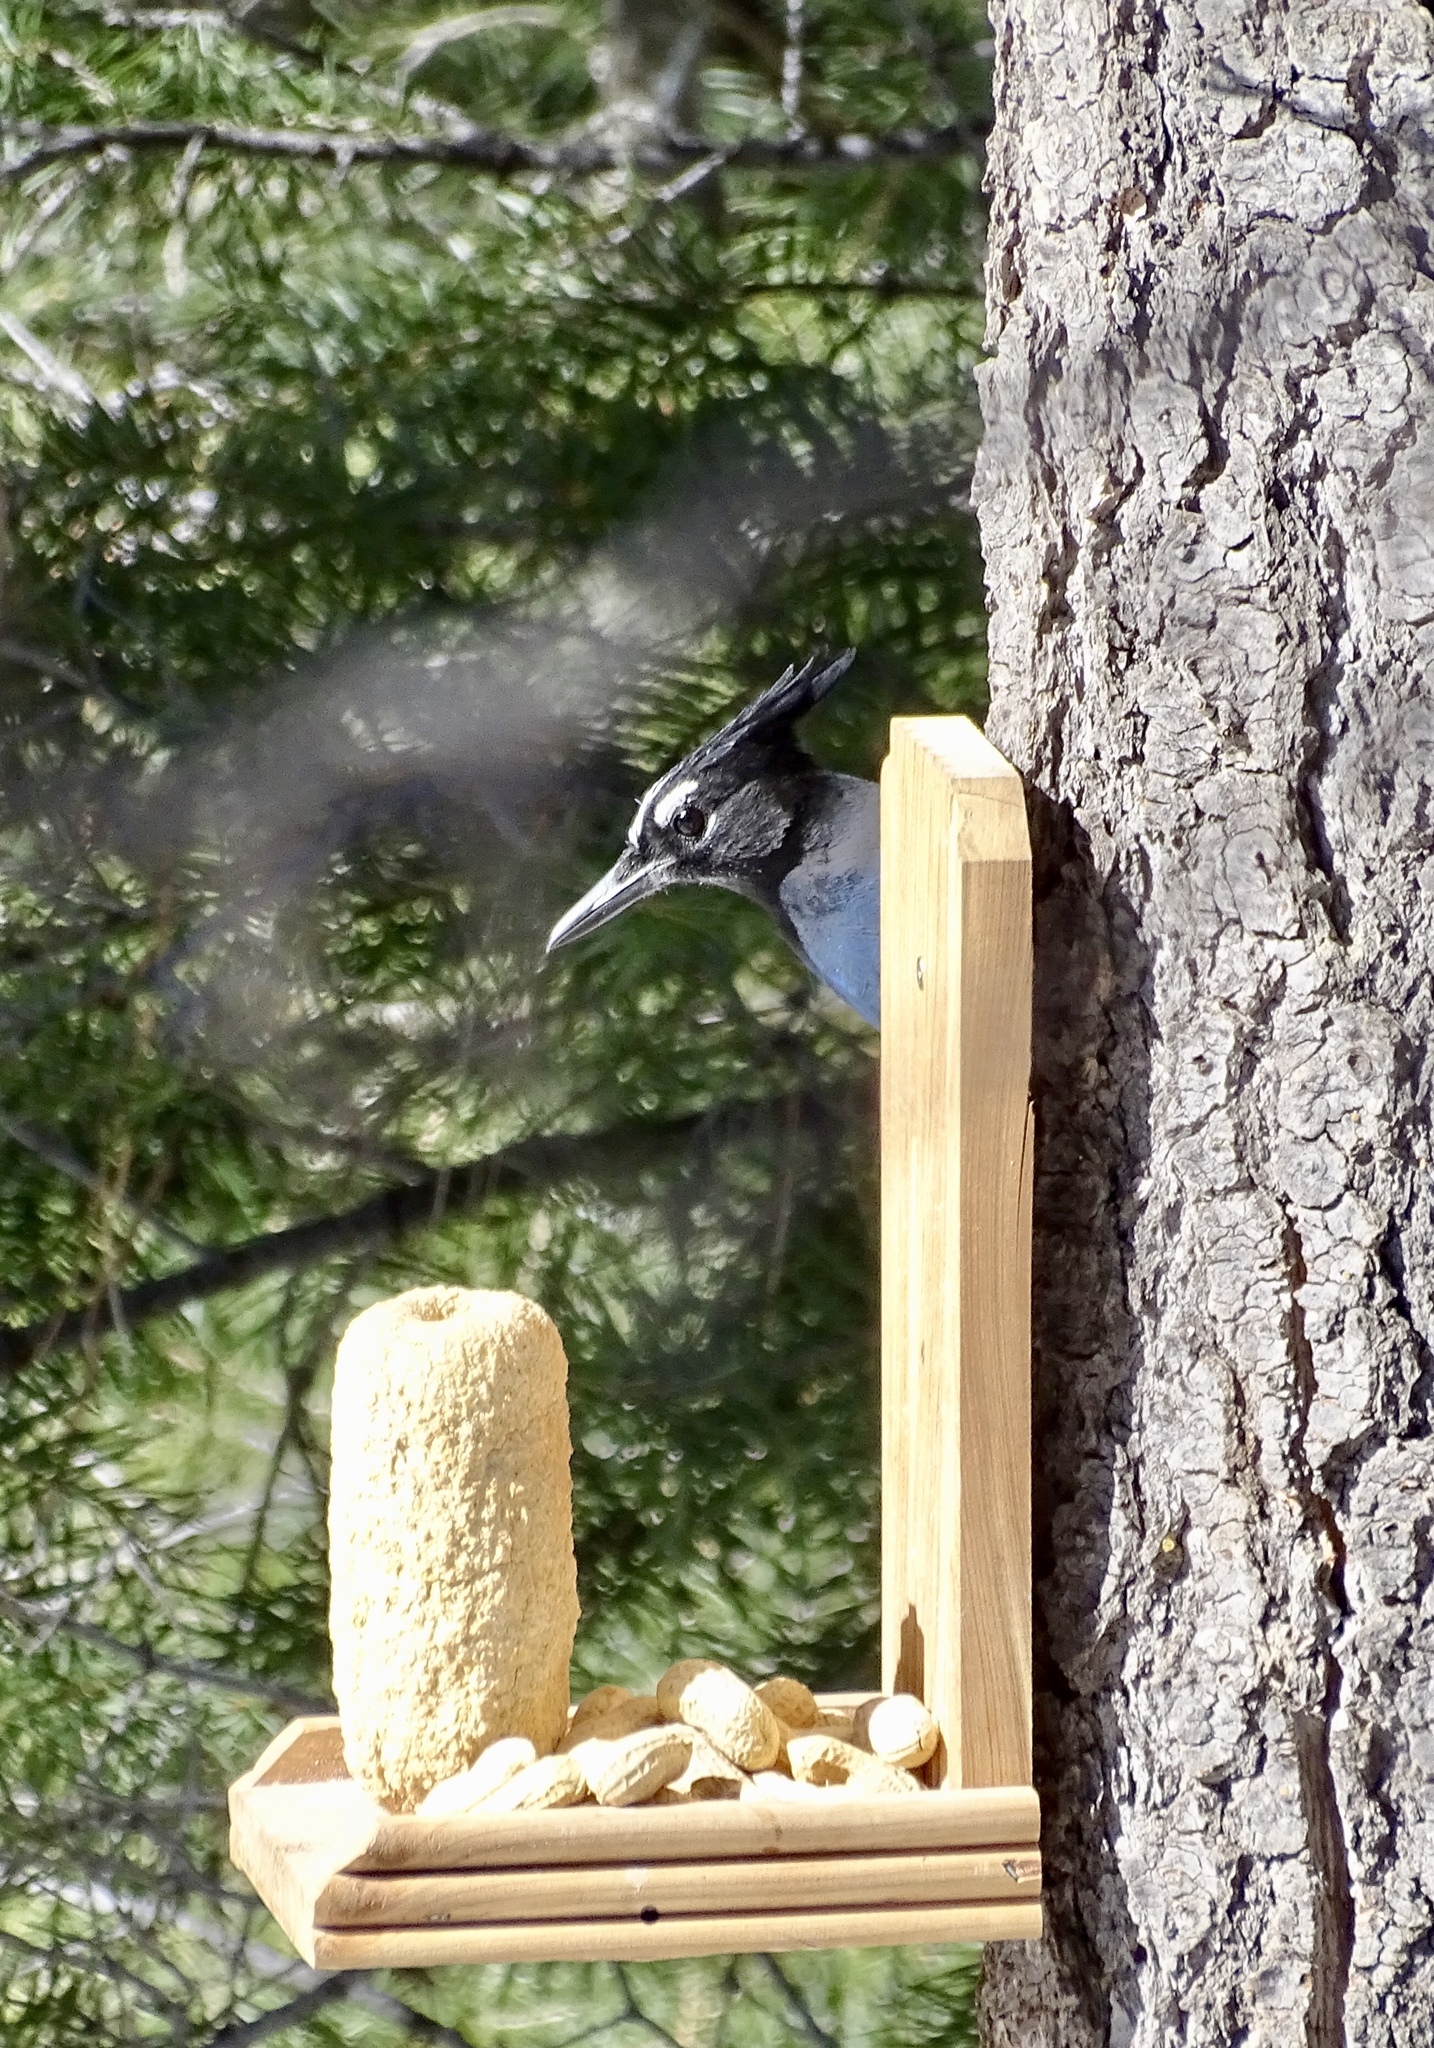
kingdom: Animalia
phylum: Chordata
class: Aves
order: Passeriformes
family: Corvidae
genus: Cyanocitta
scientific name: Cyanocitta stelleri
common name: Steller's jay
